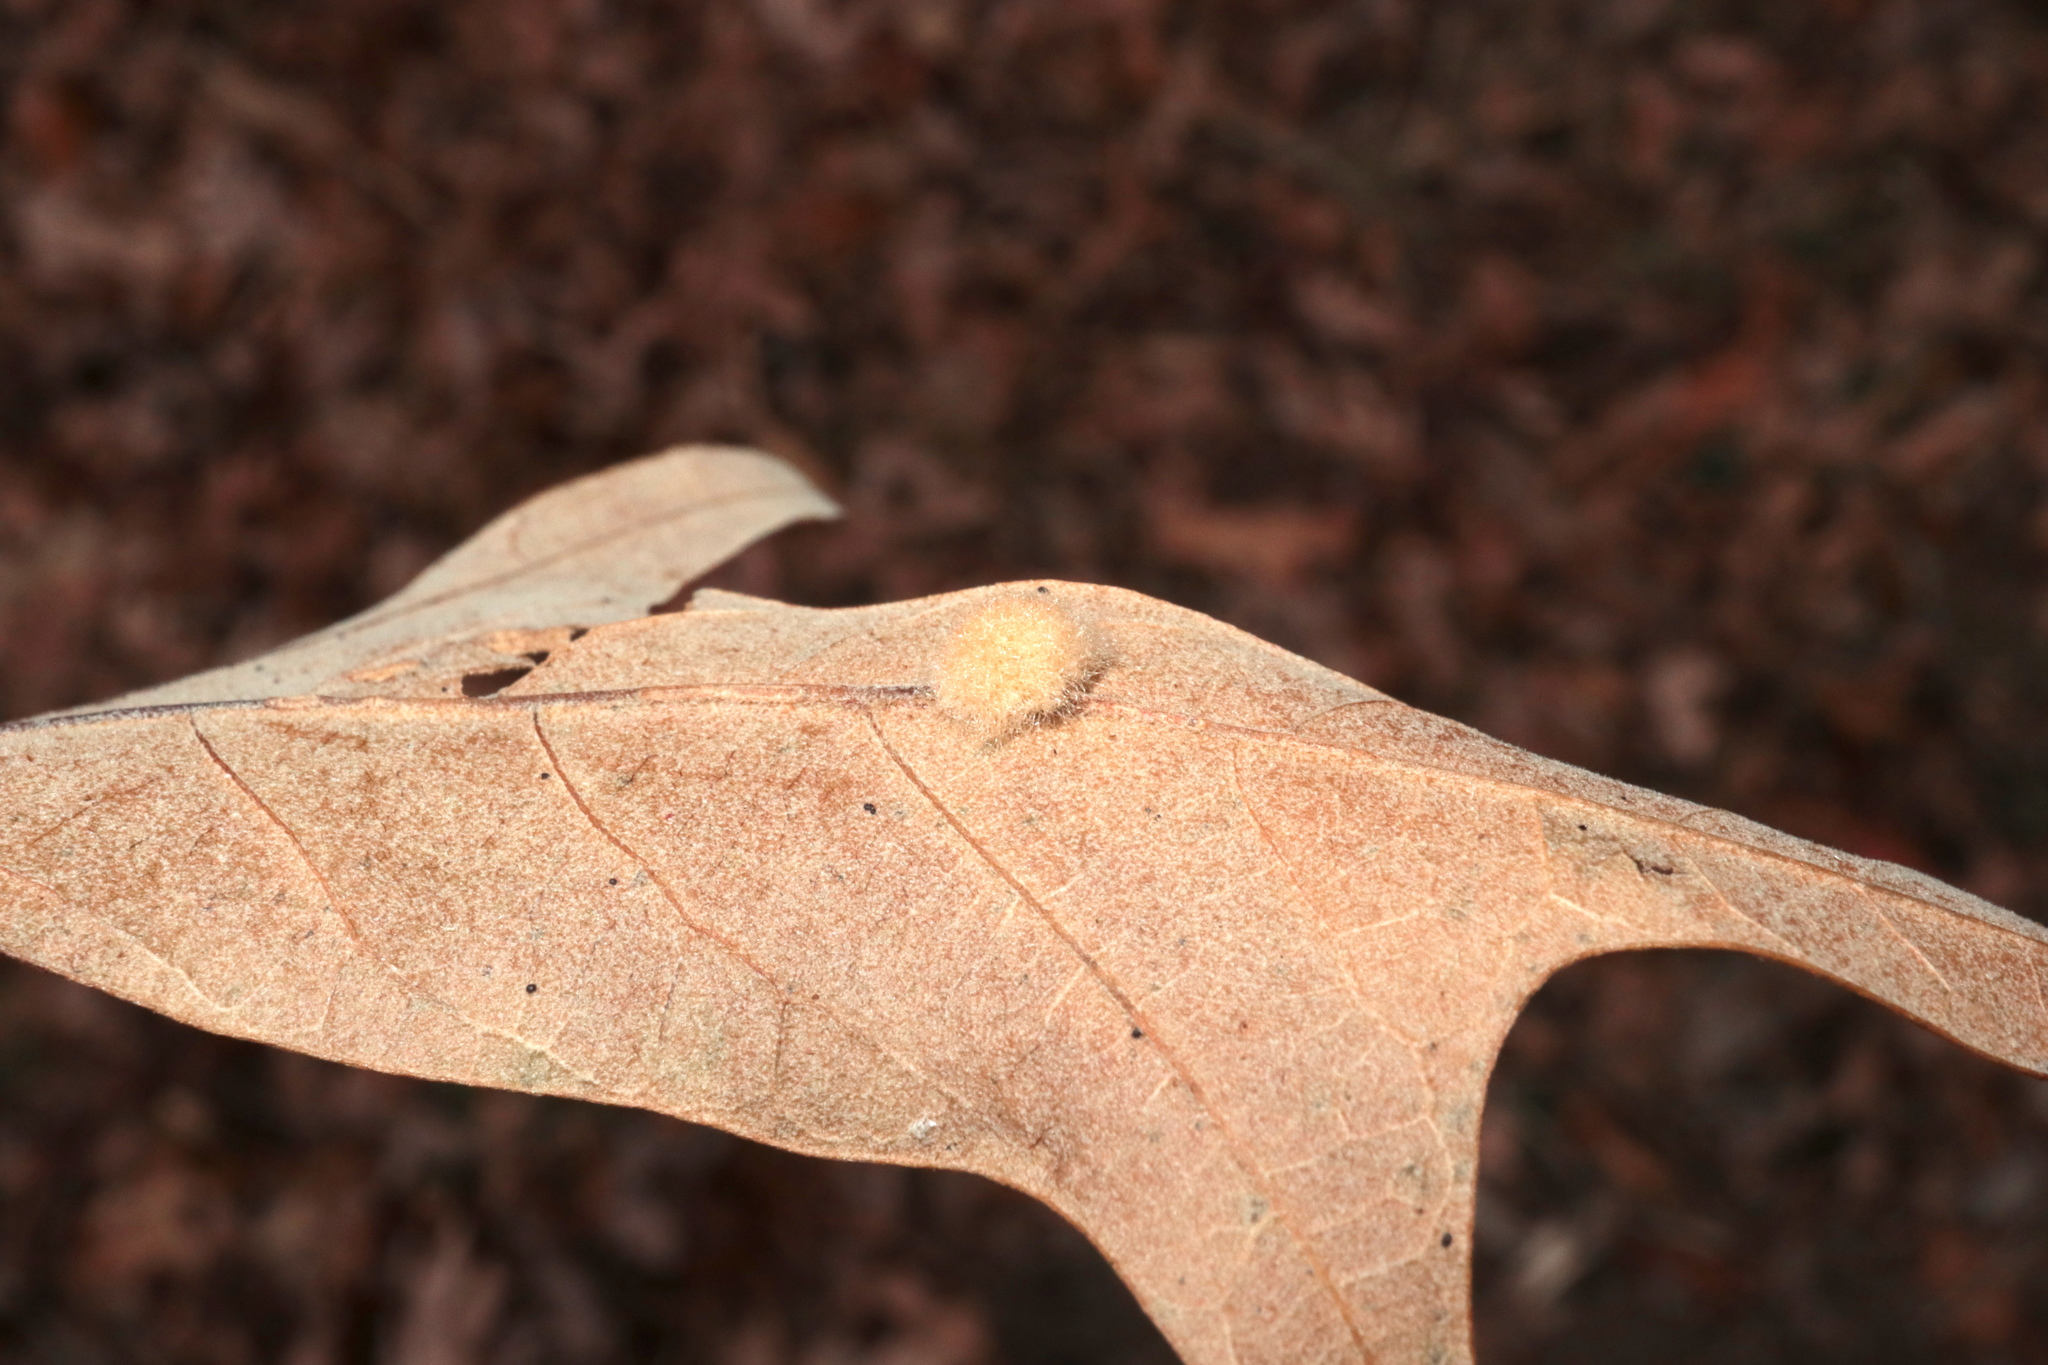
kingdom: Animalia
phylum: Arthropoda
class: Insecta
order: Hymenoptera
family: Cynipidae
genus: Callirhytis
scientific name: Callirhytis
